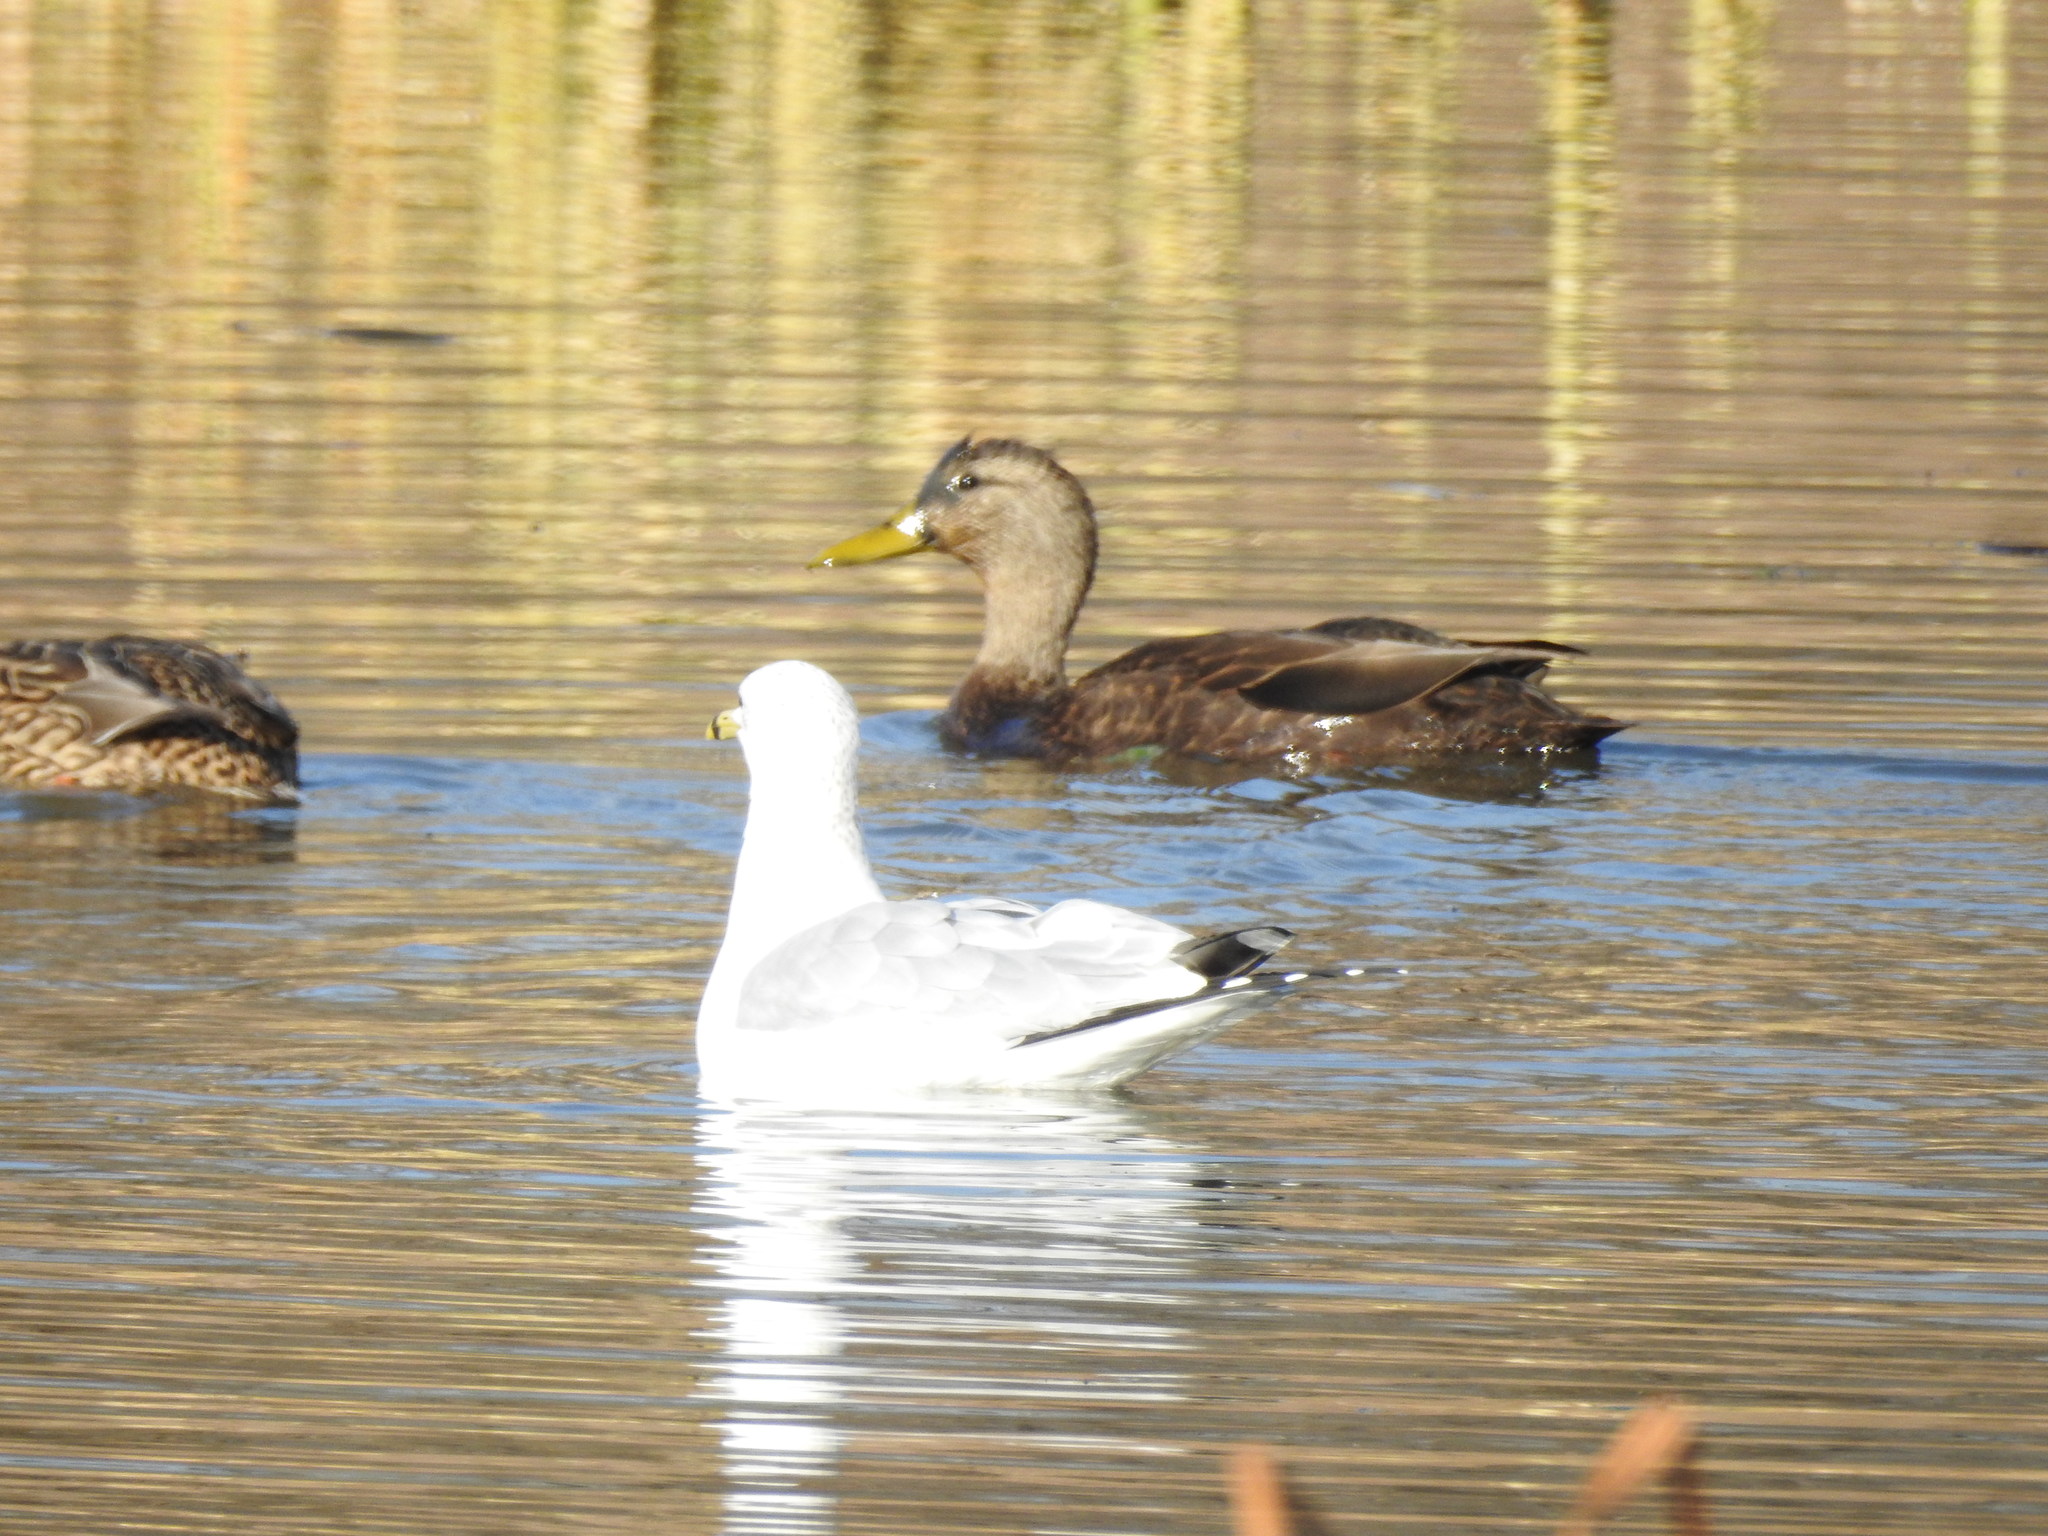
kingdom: Animalia
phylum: Chordata
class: Aves
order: Anseriformes
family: Anatidae
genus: Anas
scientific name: Anas rubripes
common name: American black duck
